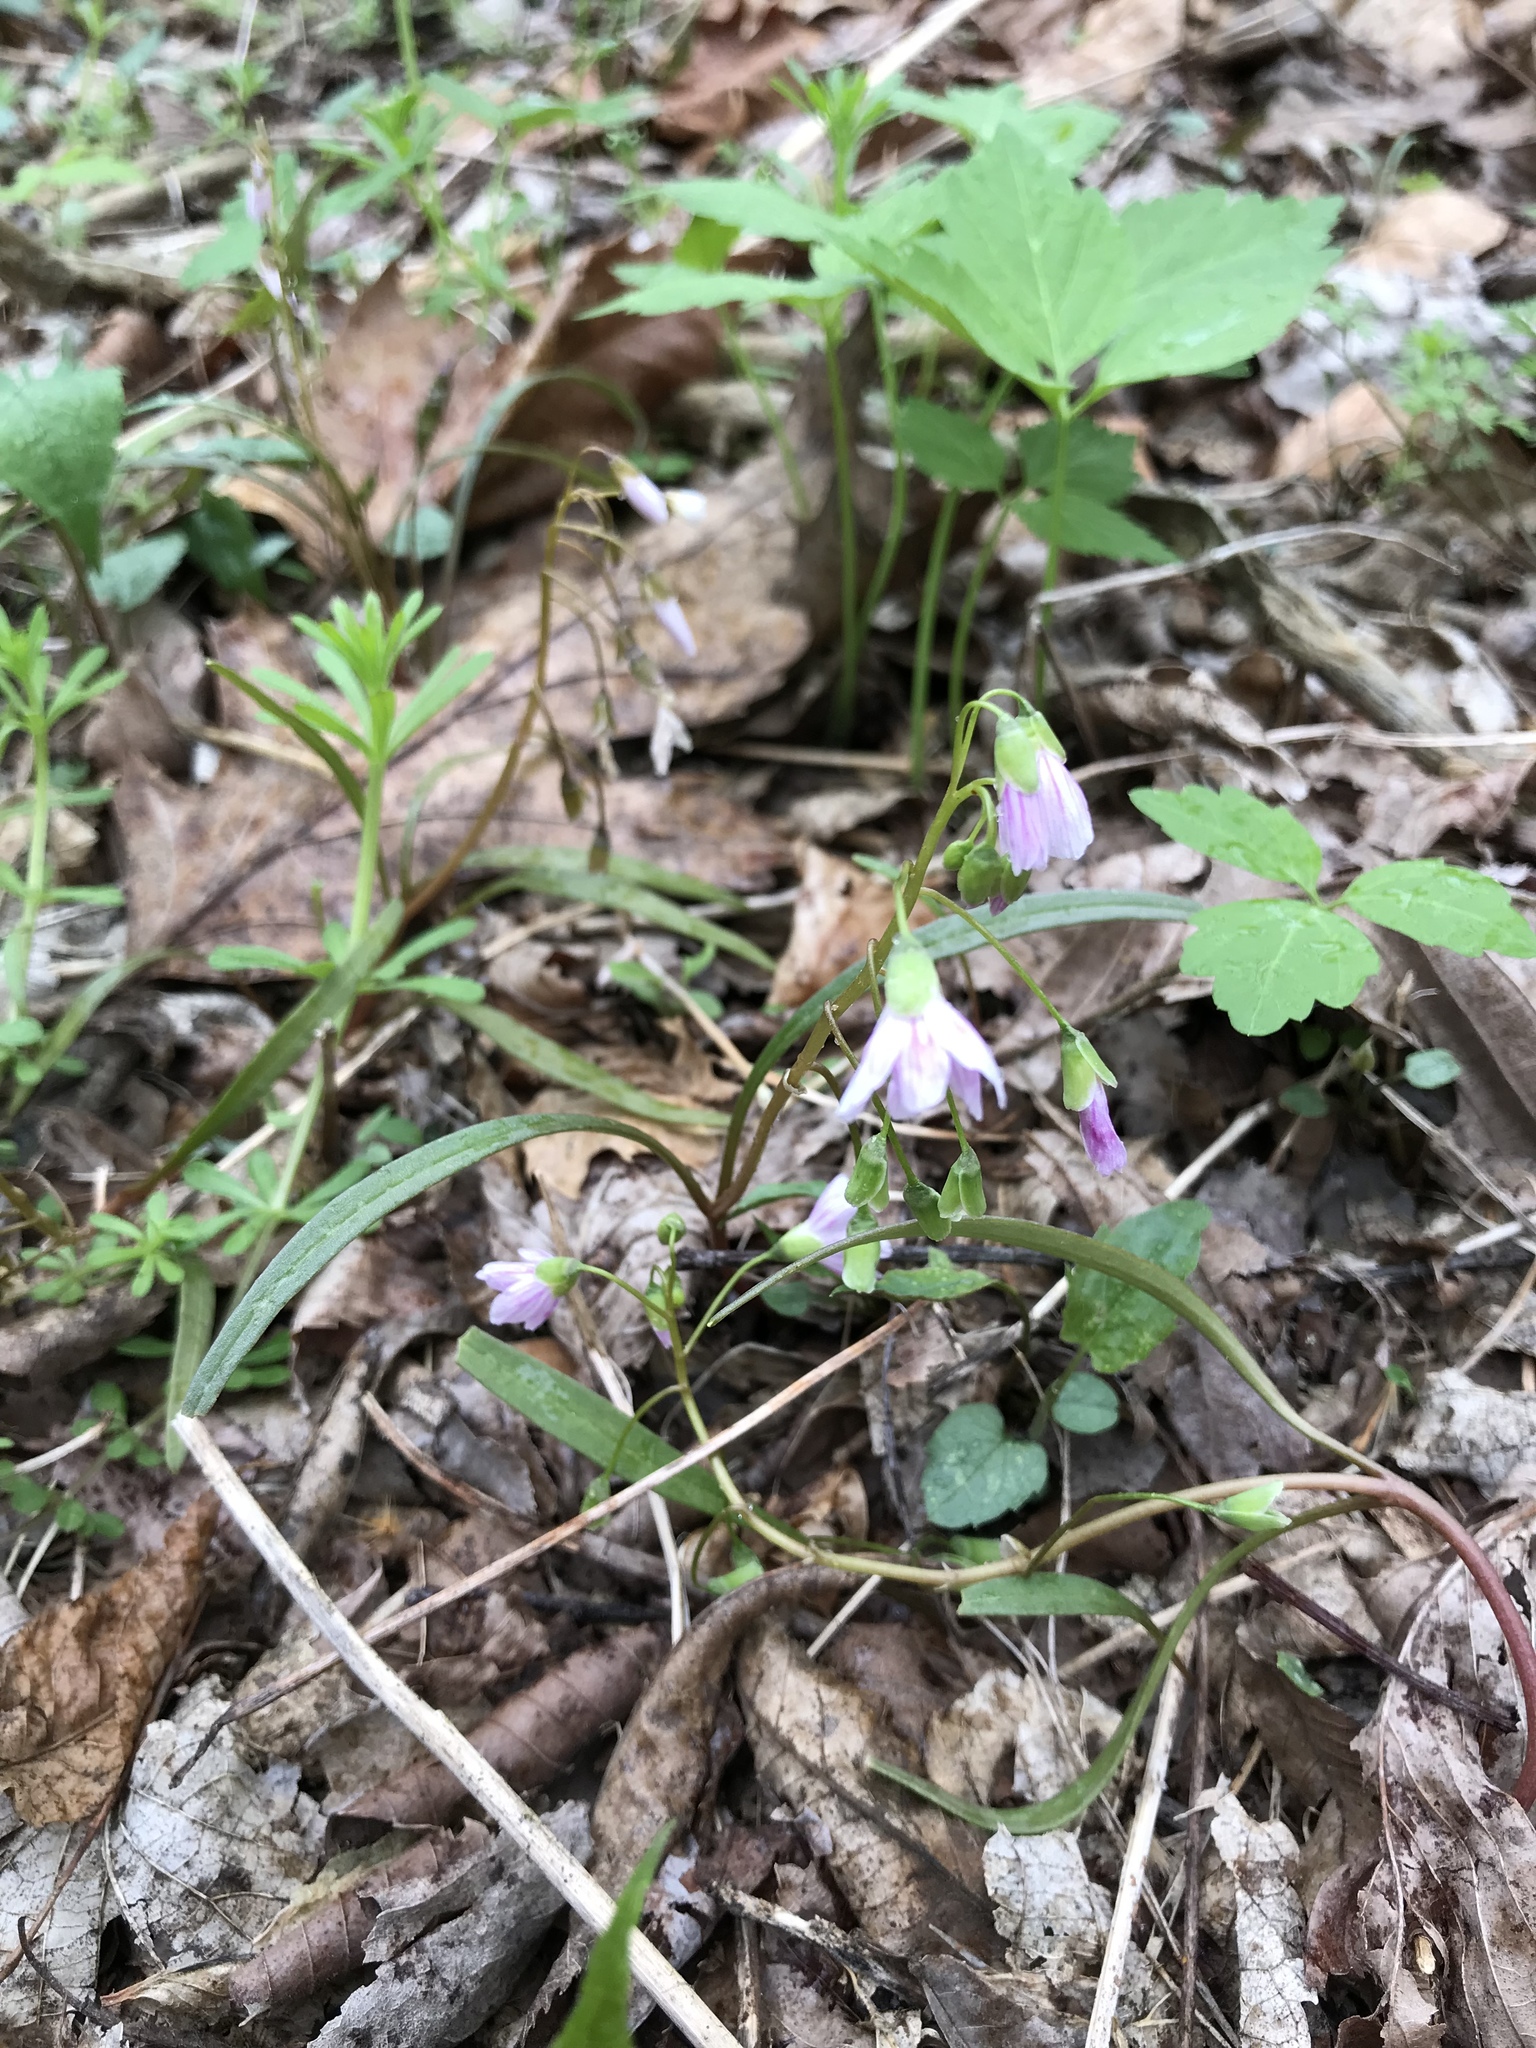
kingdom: Plantae
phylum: Tracheophyta
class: Magnoliopsida
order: Caryophyllales
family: Montiaceae
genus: Claytonia
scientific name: Claytonia virginica
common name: Virginia springbeauty
